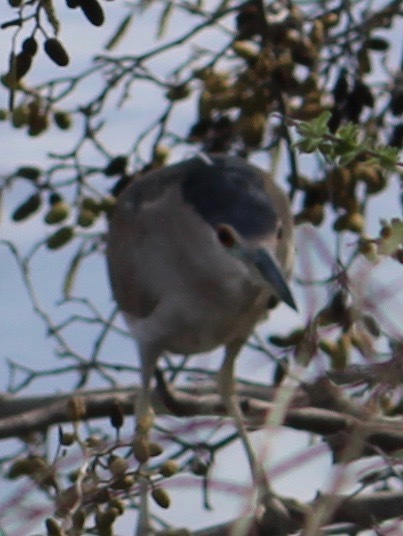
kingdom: Animalia
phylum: Chordata
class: Aves
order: Pelecaniformes
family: Ardeidae
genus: Nycticorax
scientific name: Nycticorax nycticorax
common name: Black-crowned night heron
